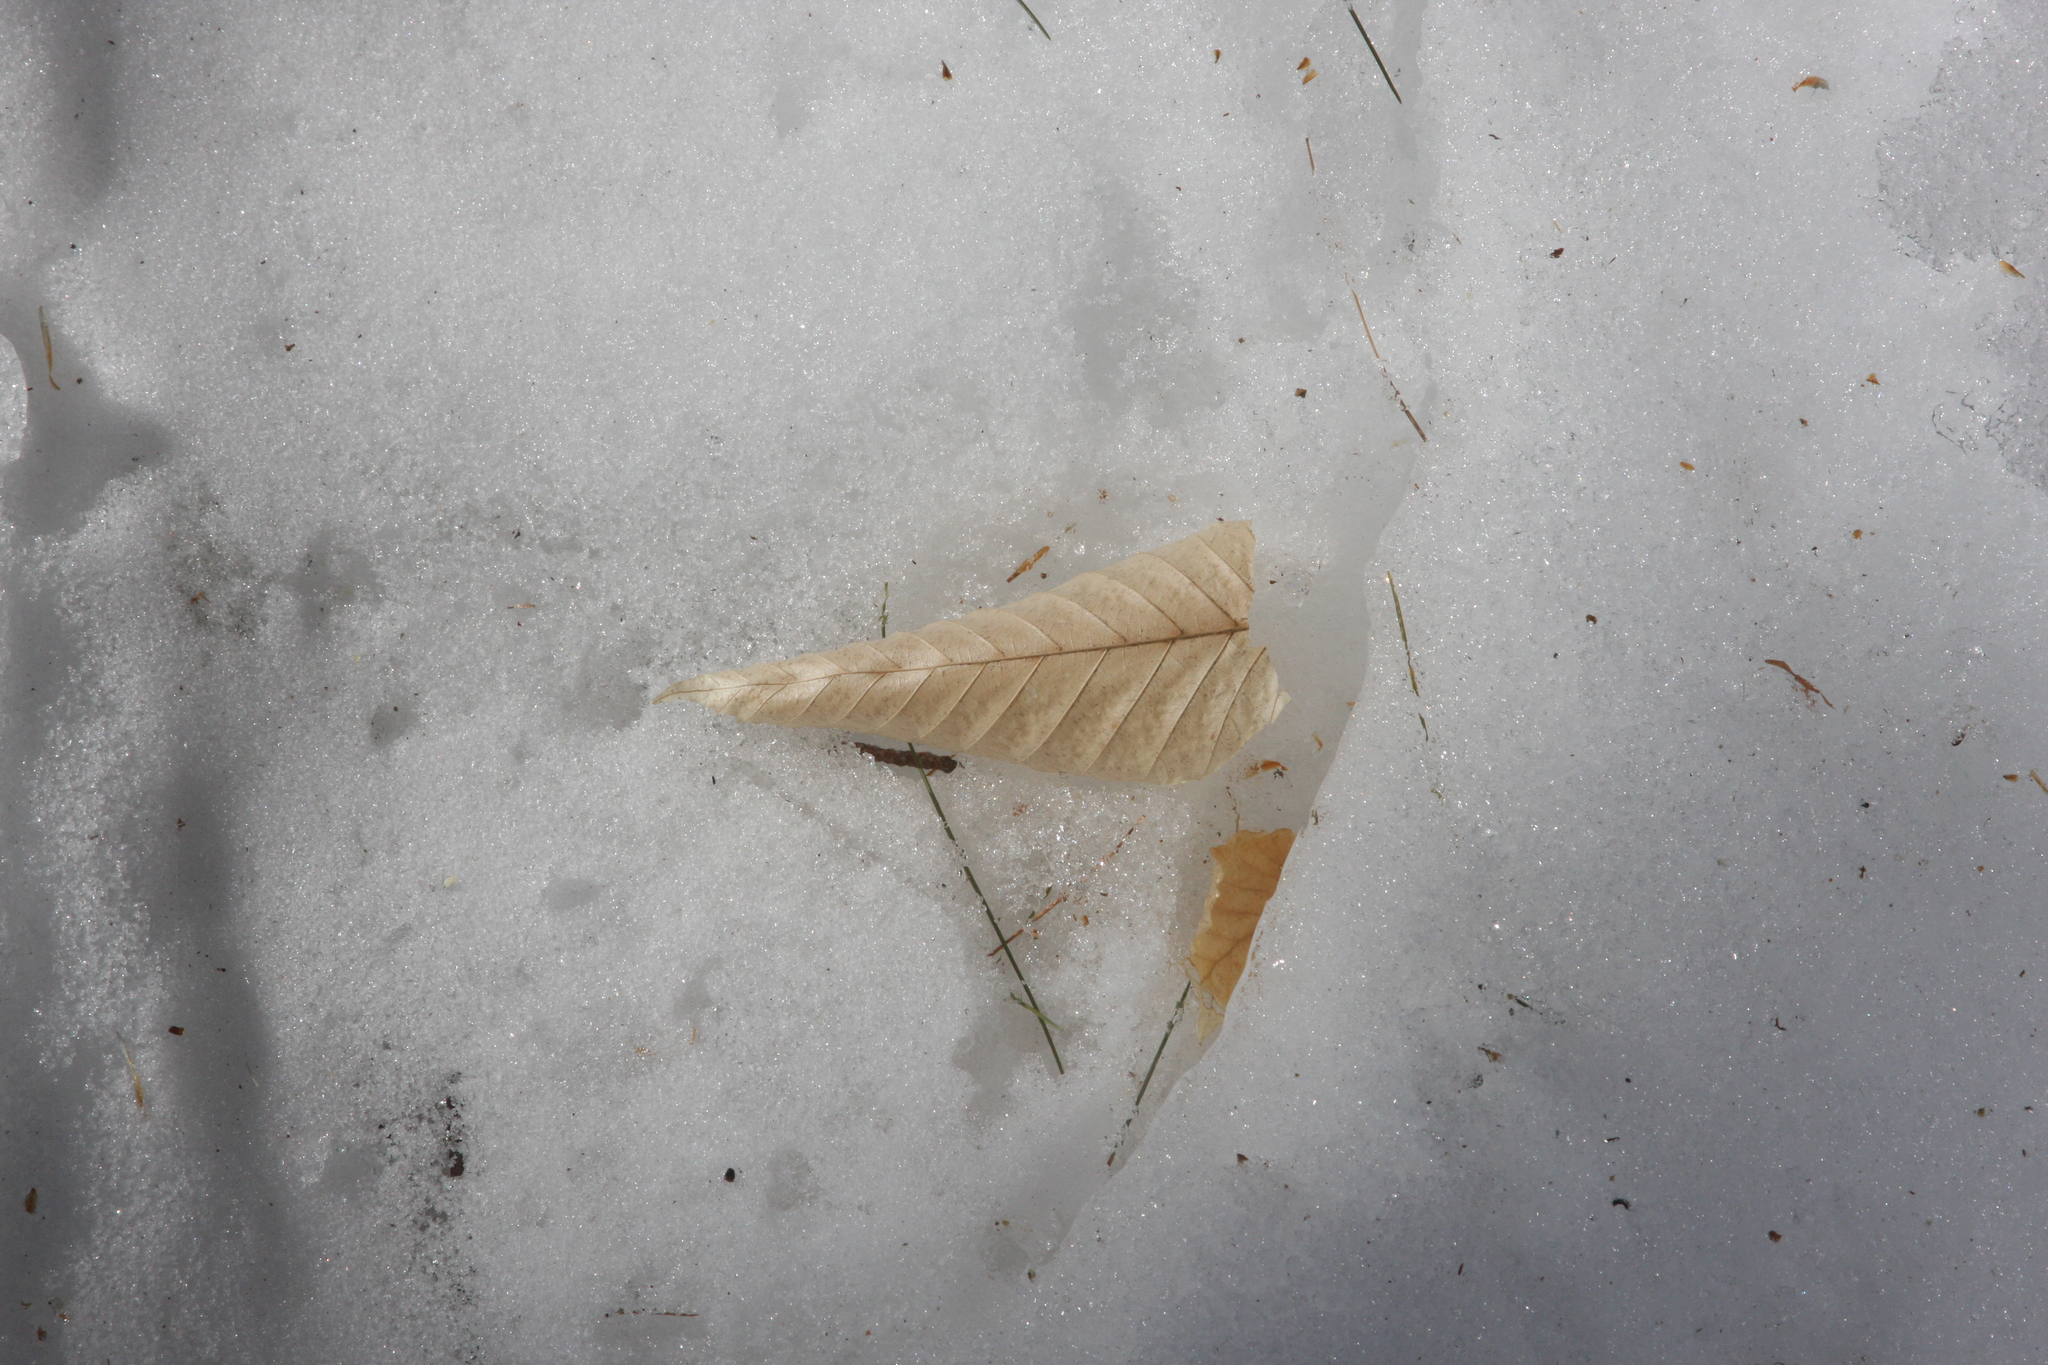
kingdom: Plantae
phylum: Tracheophyta
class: Magnoliopsida
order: Fagales
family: Fagaceae
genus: Fagus
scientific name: Fagus grandifolia
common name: American beech
